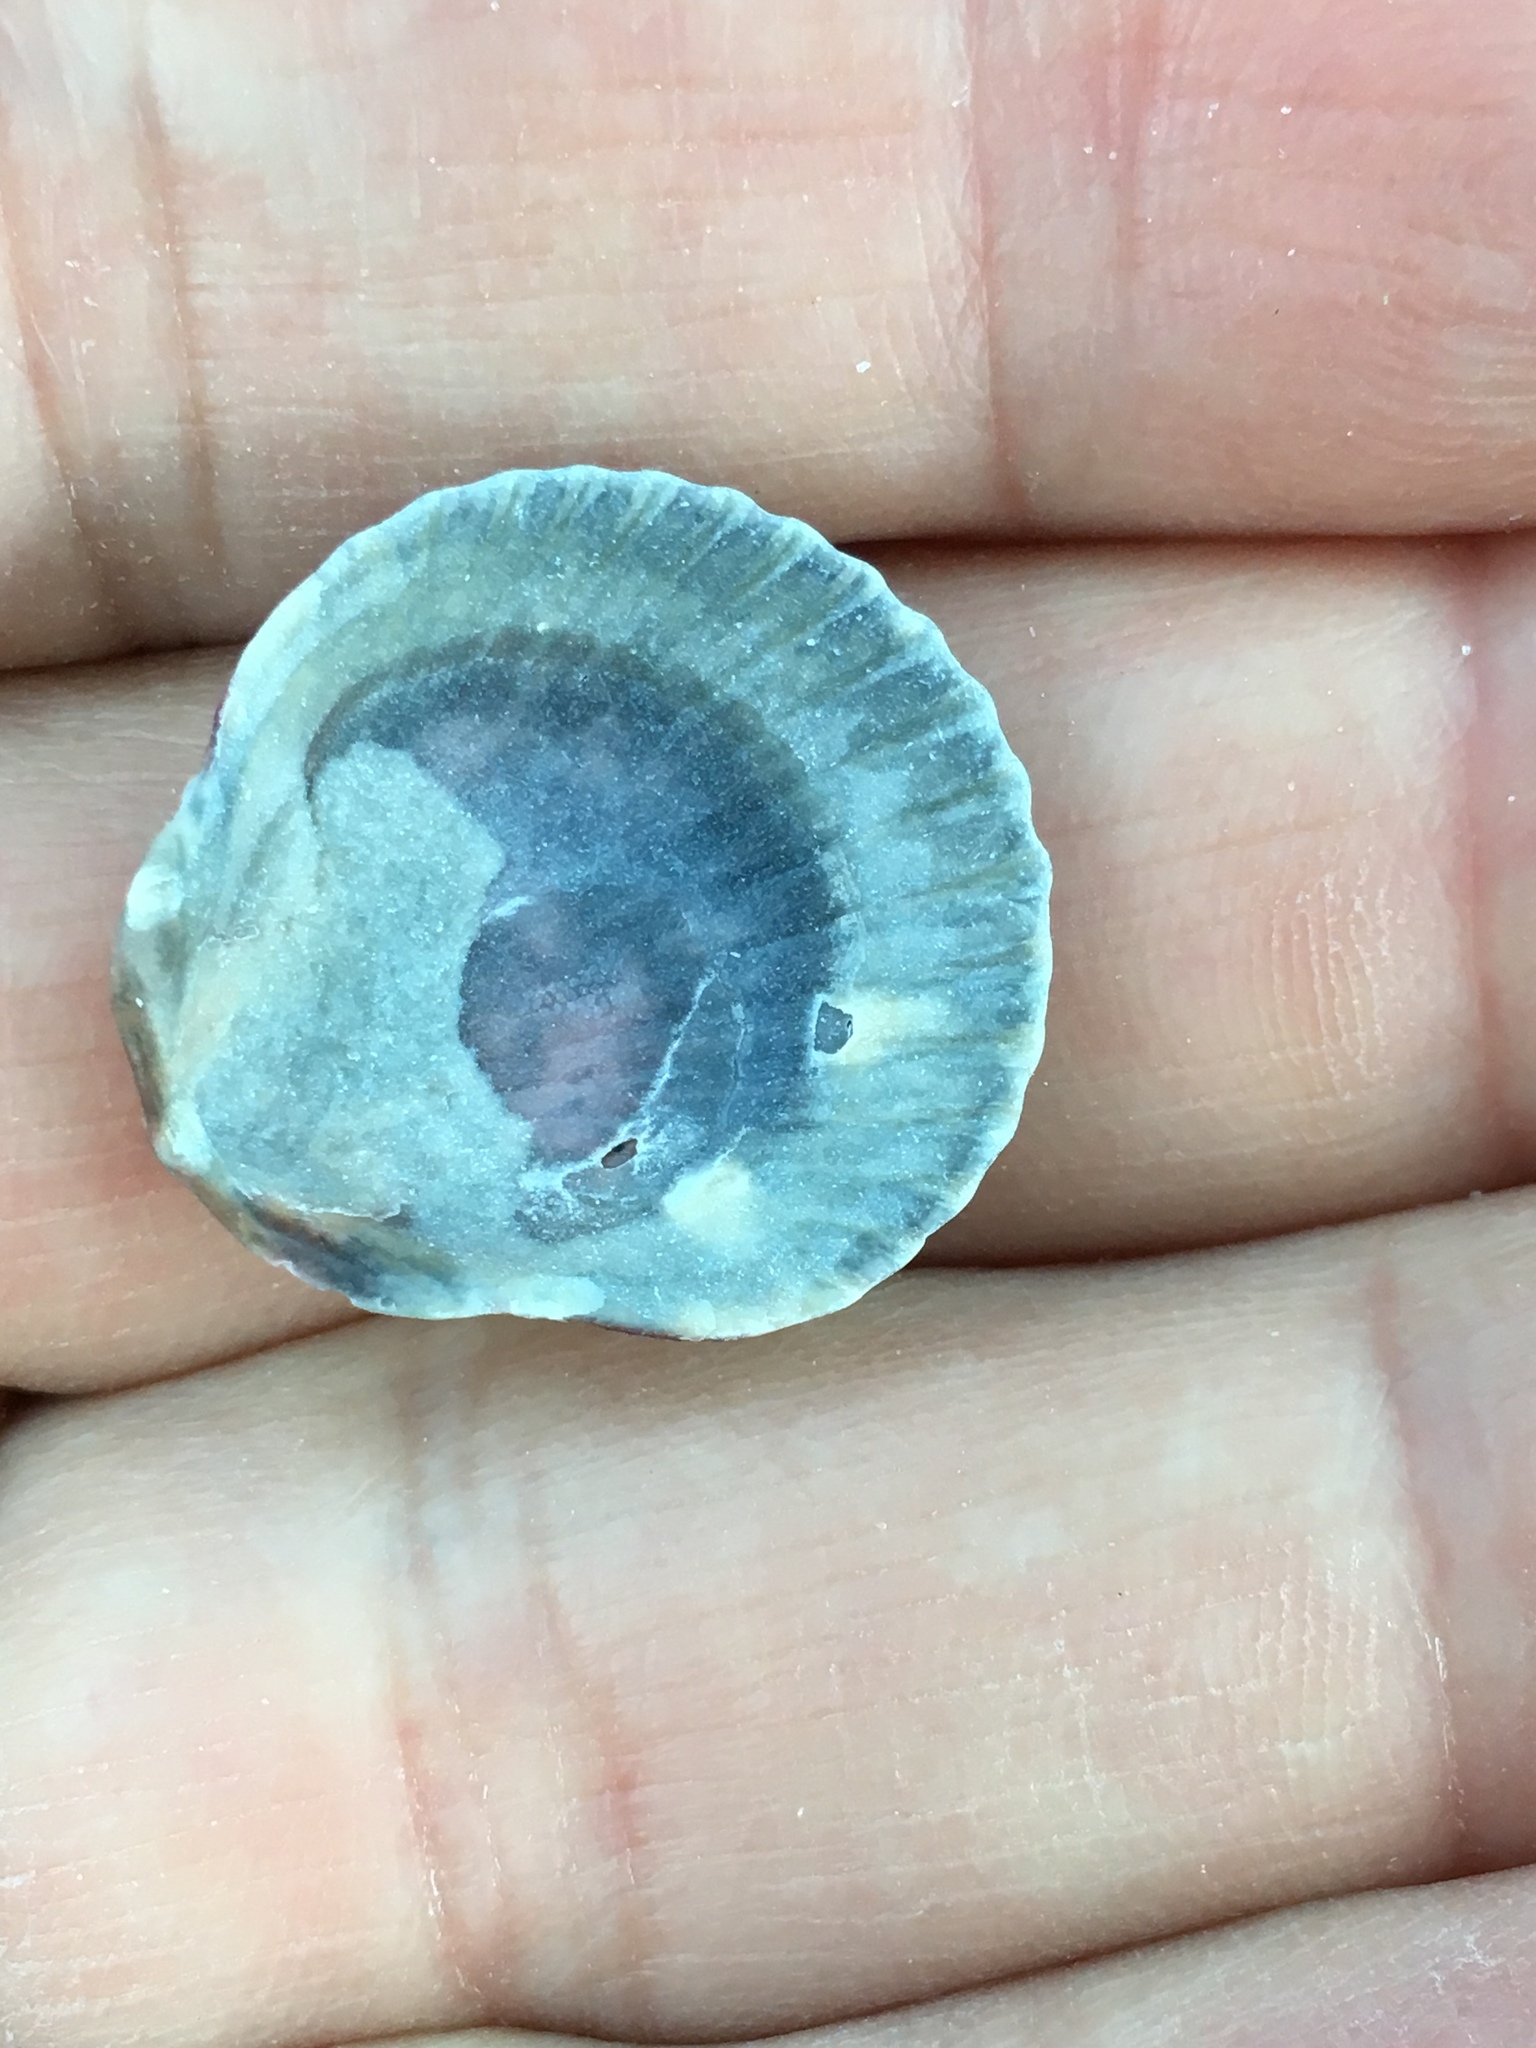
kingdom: Animalia
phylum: Mollusca
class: Bivalvia
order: Pectinida
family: Pectinidae
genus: Argopecten
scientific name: Argopecten gibbus
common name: Atlantic calico scallop
